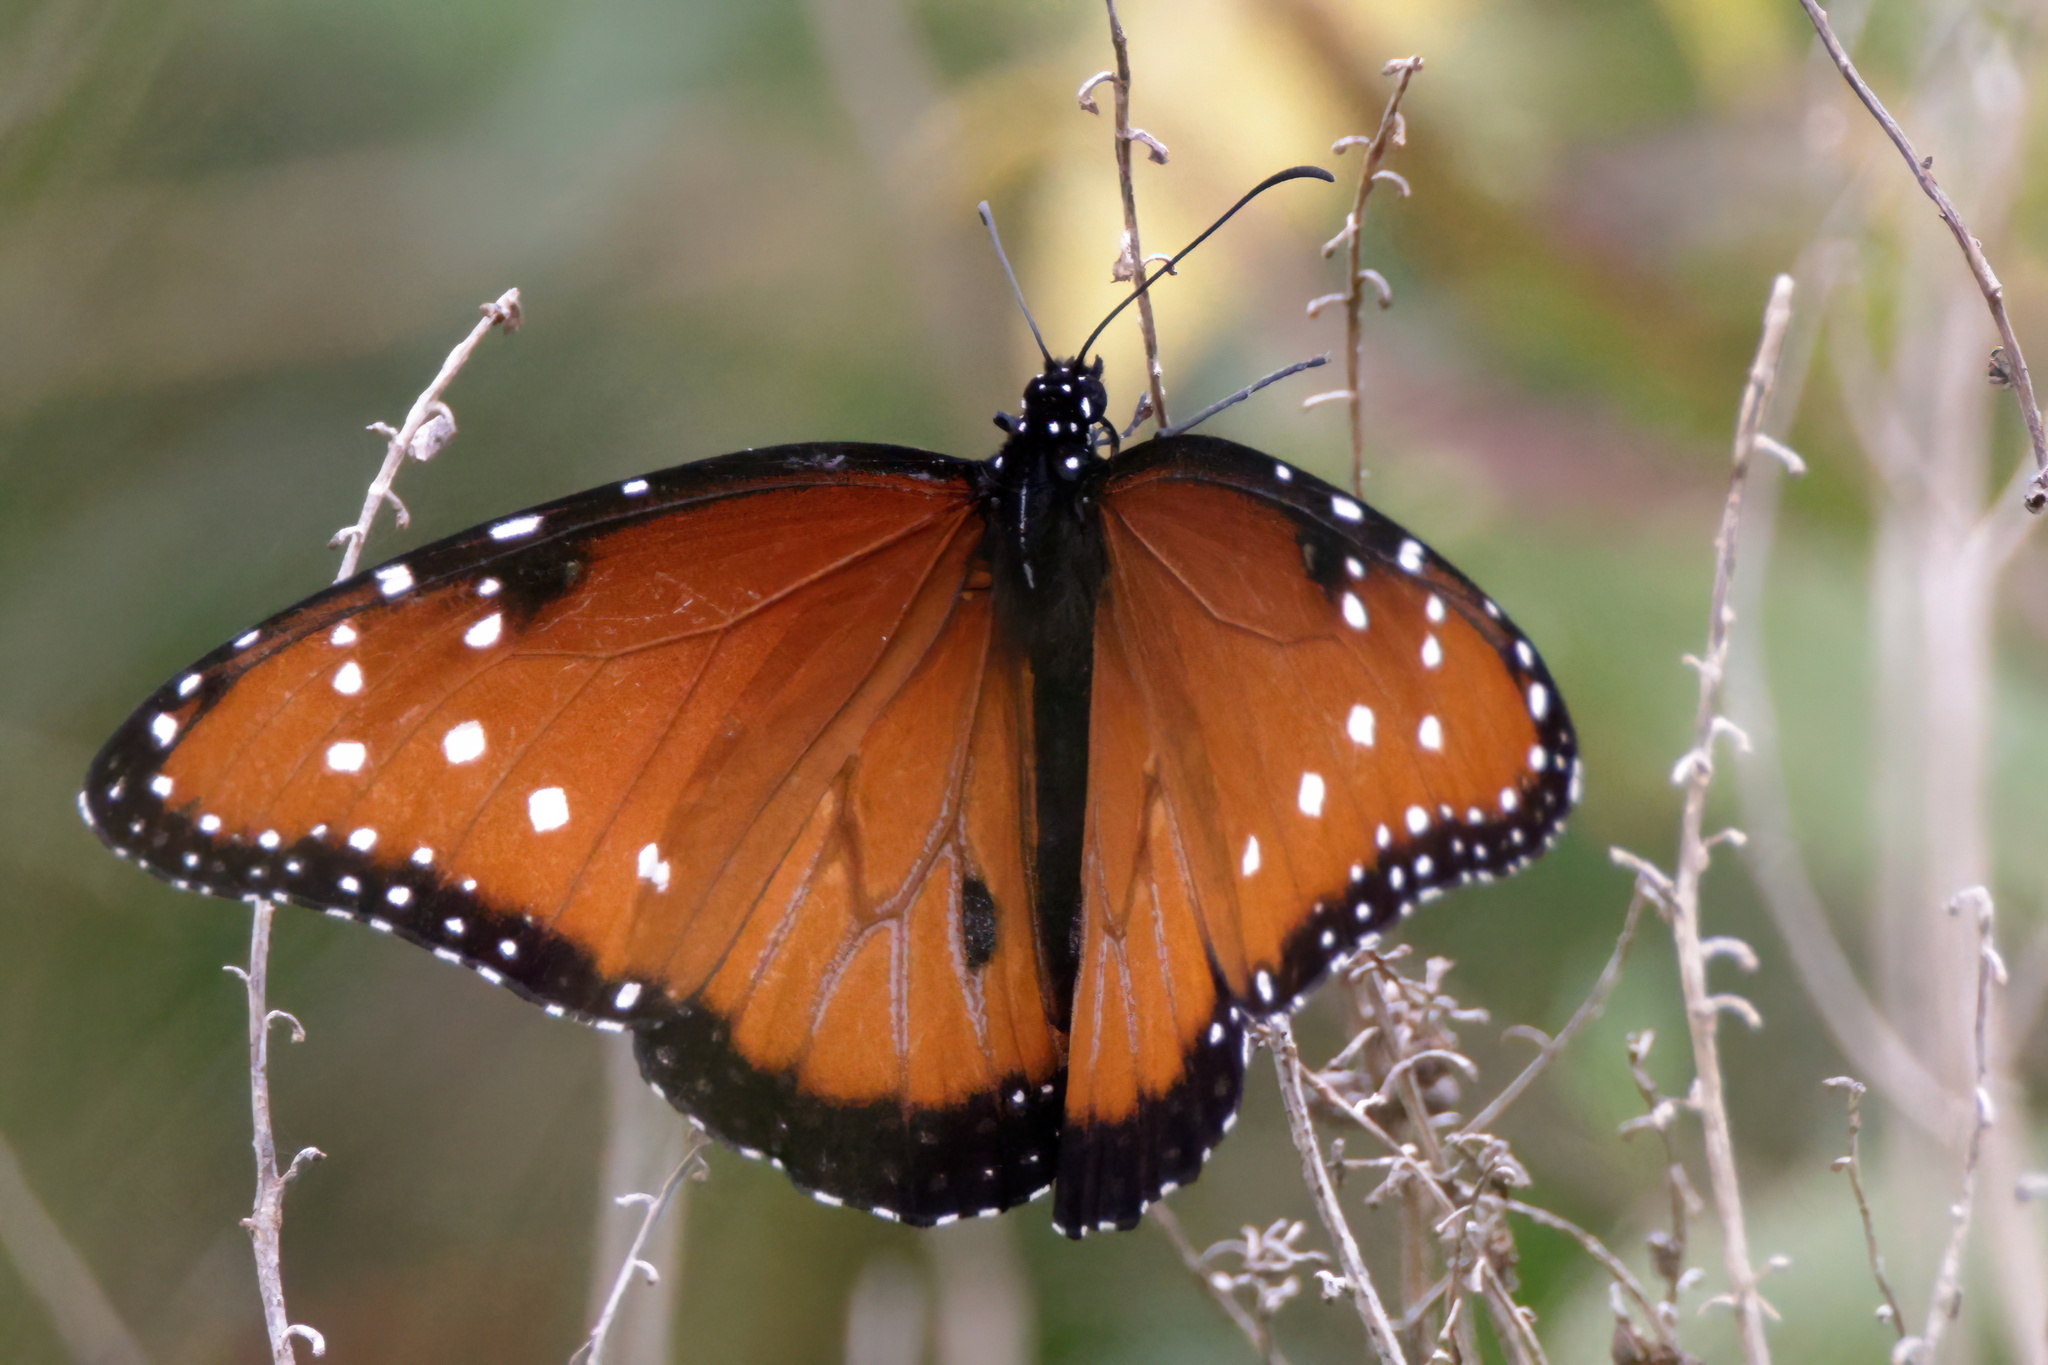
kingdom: Animalia
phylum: Arthropoda
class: Insecta
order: Lepidoptera
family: Nymphalidae
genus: Danaus
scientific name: Danaus gilippus
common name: Queen
